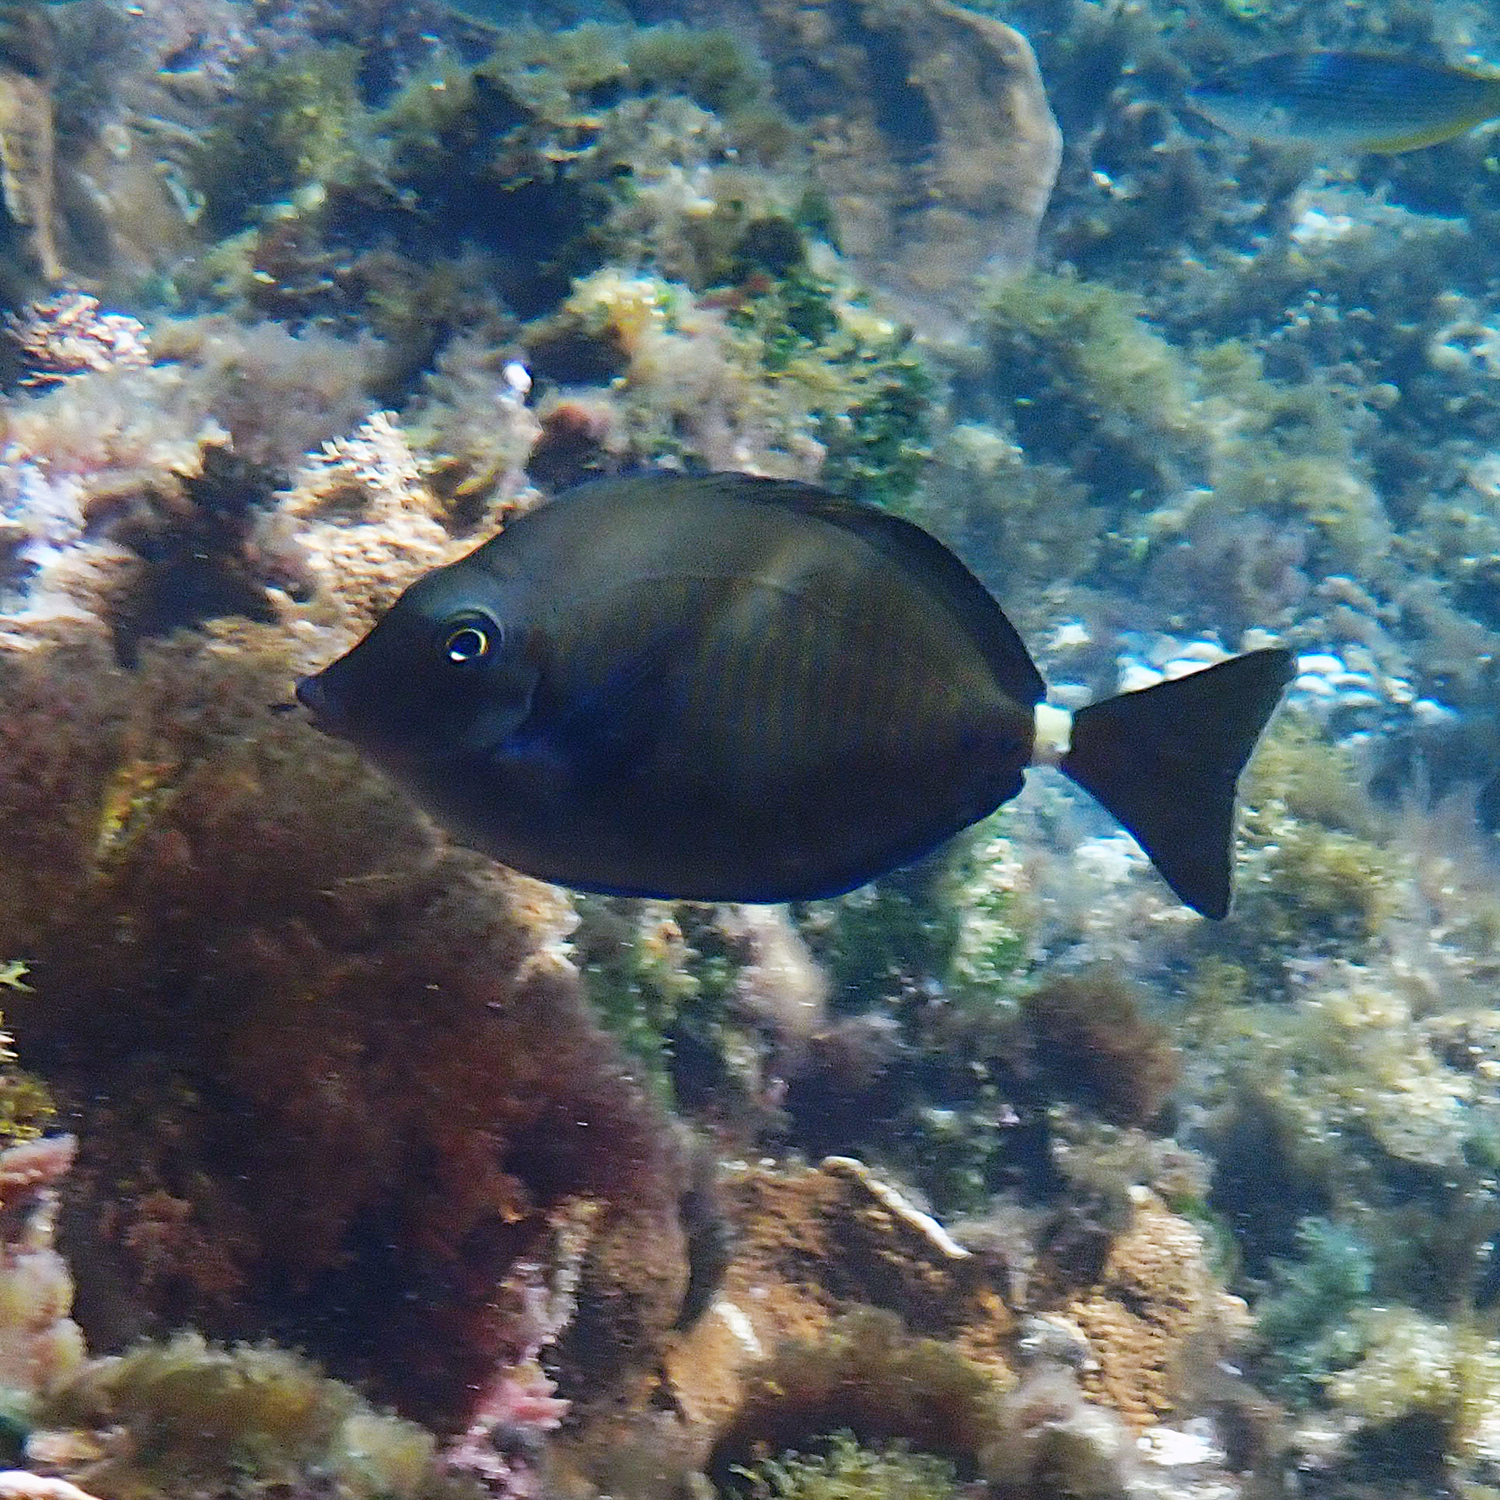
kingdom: Animalia
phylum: Chordata
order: Perciformes
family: Acanthuridae
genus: Prionurus
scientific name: Prionurus maculatus
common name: Yellowspotted sawtail
